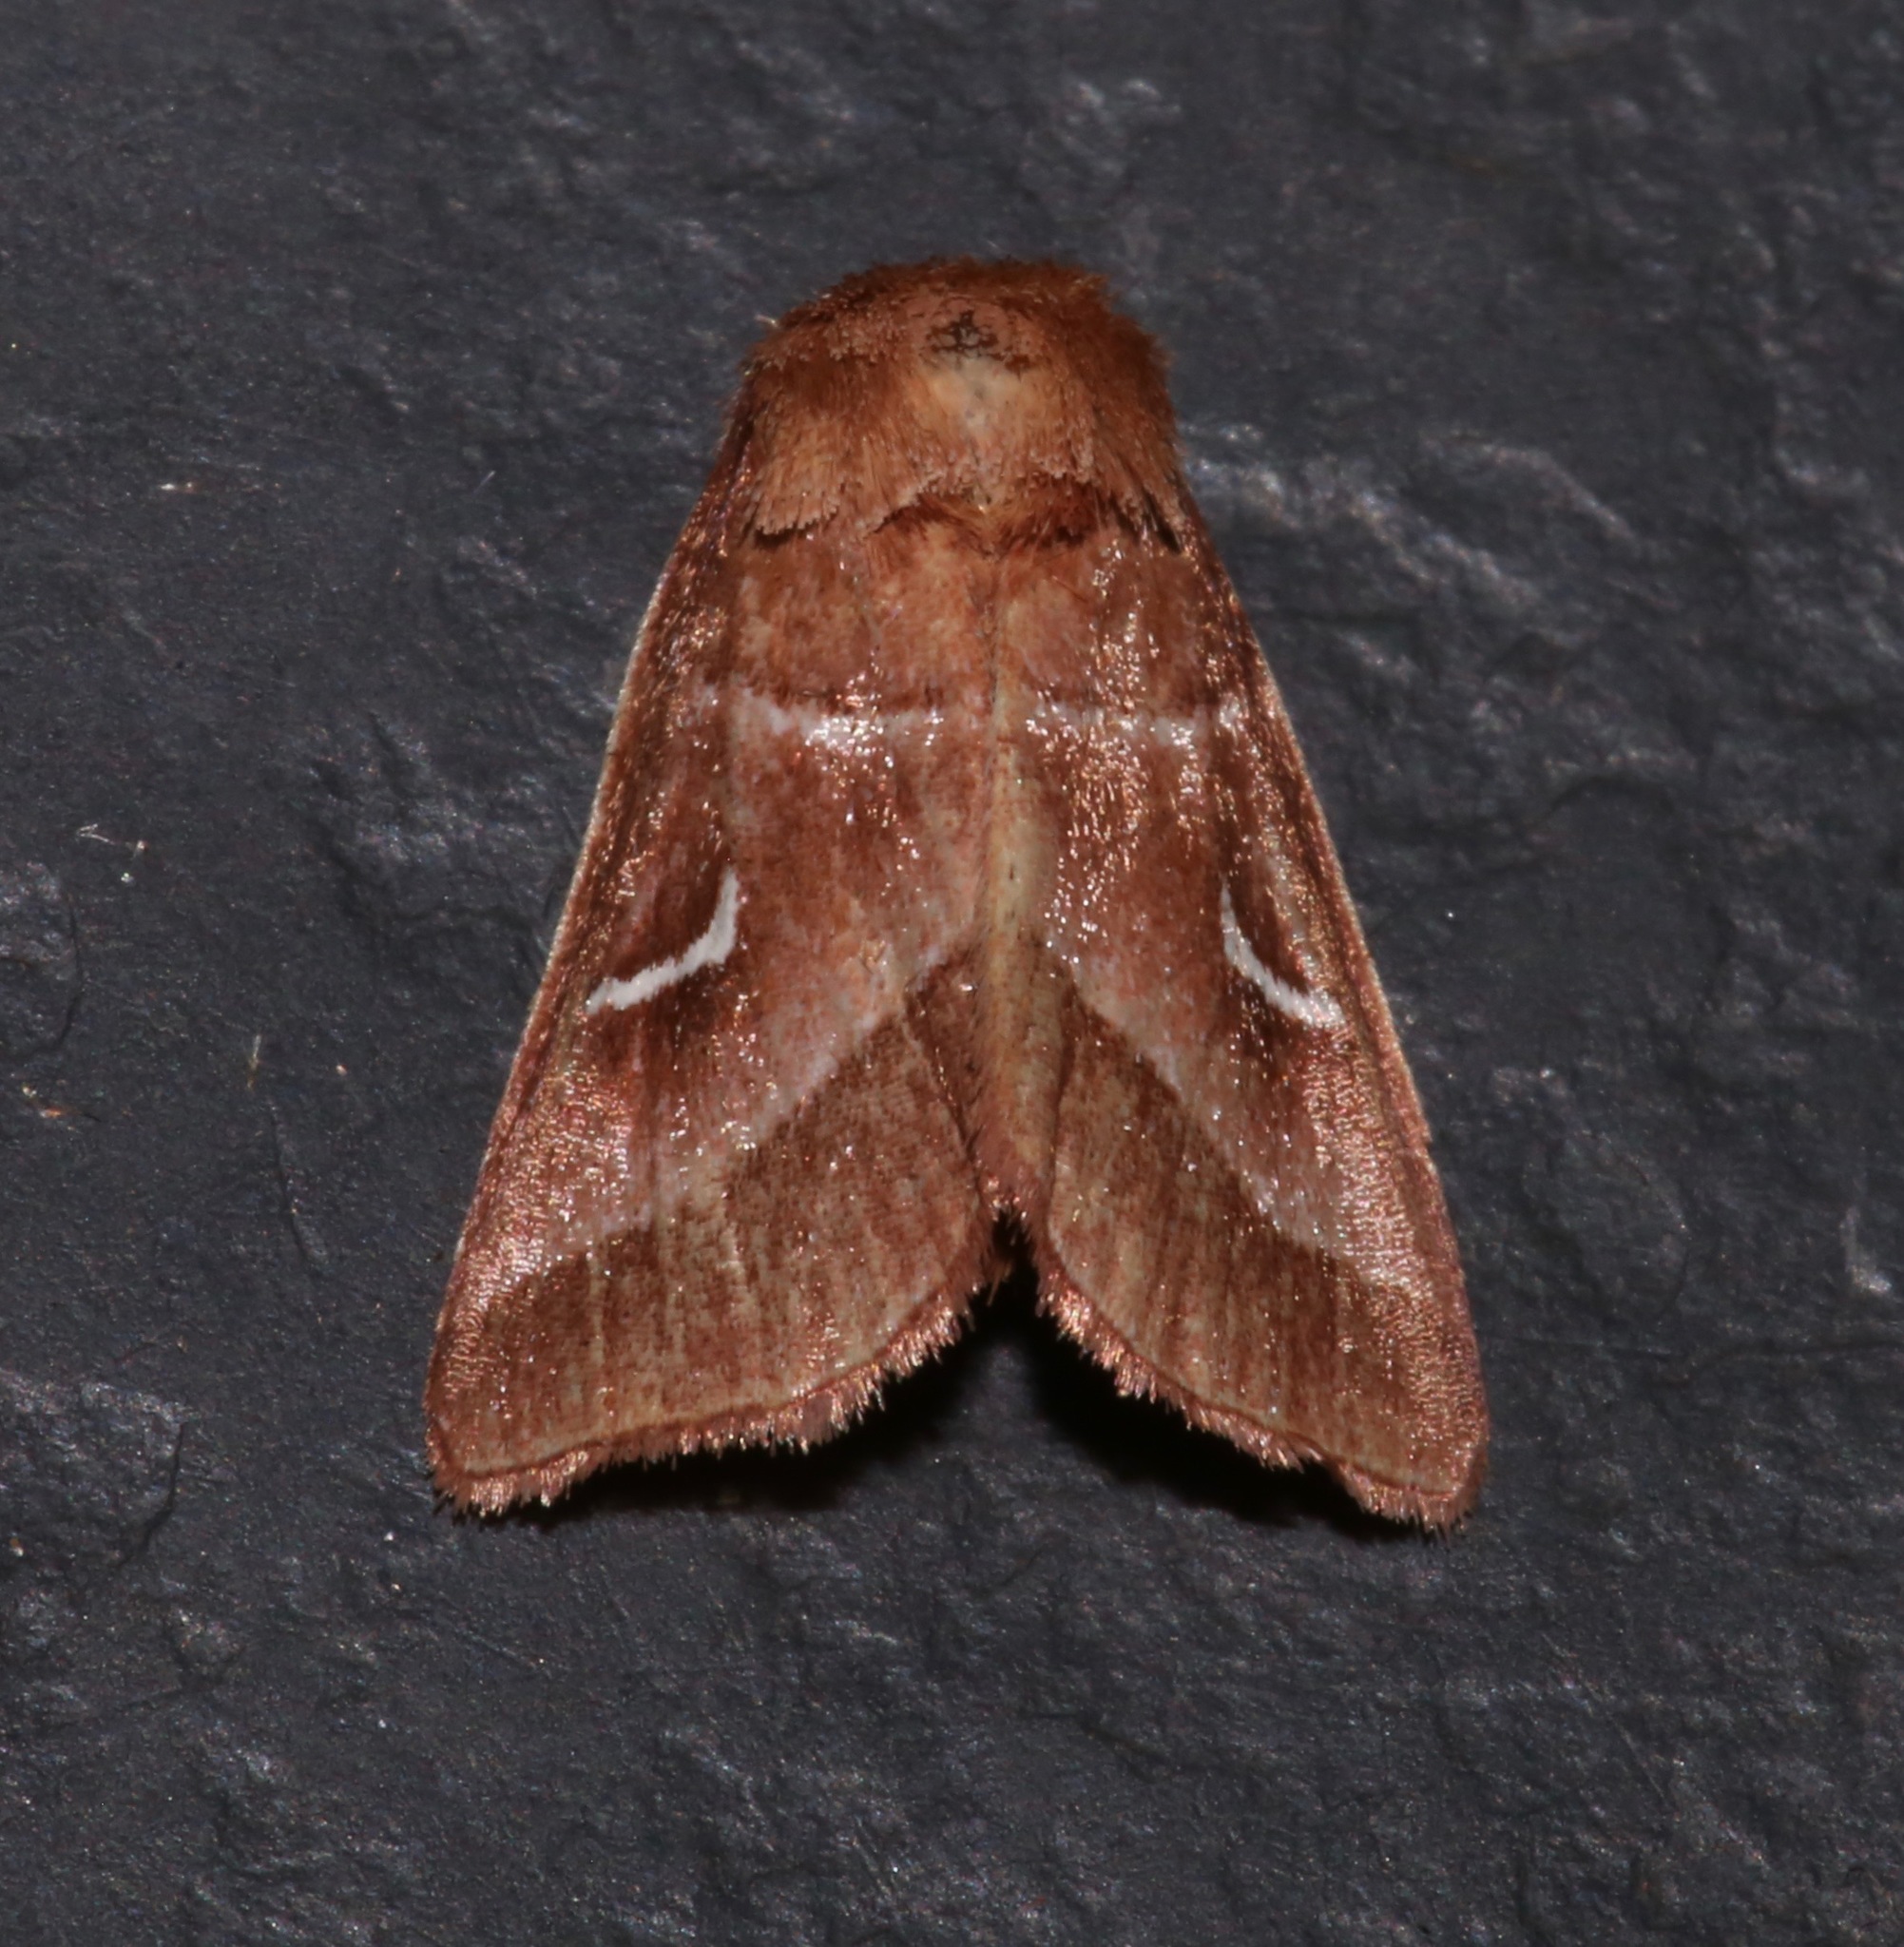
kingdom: Animalia
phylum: Arthropoda
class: Insecta
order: Lepidoptera
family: Noctuidae
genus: Fagitana
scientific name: Fagitana littera
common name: Marsh fern moth
